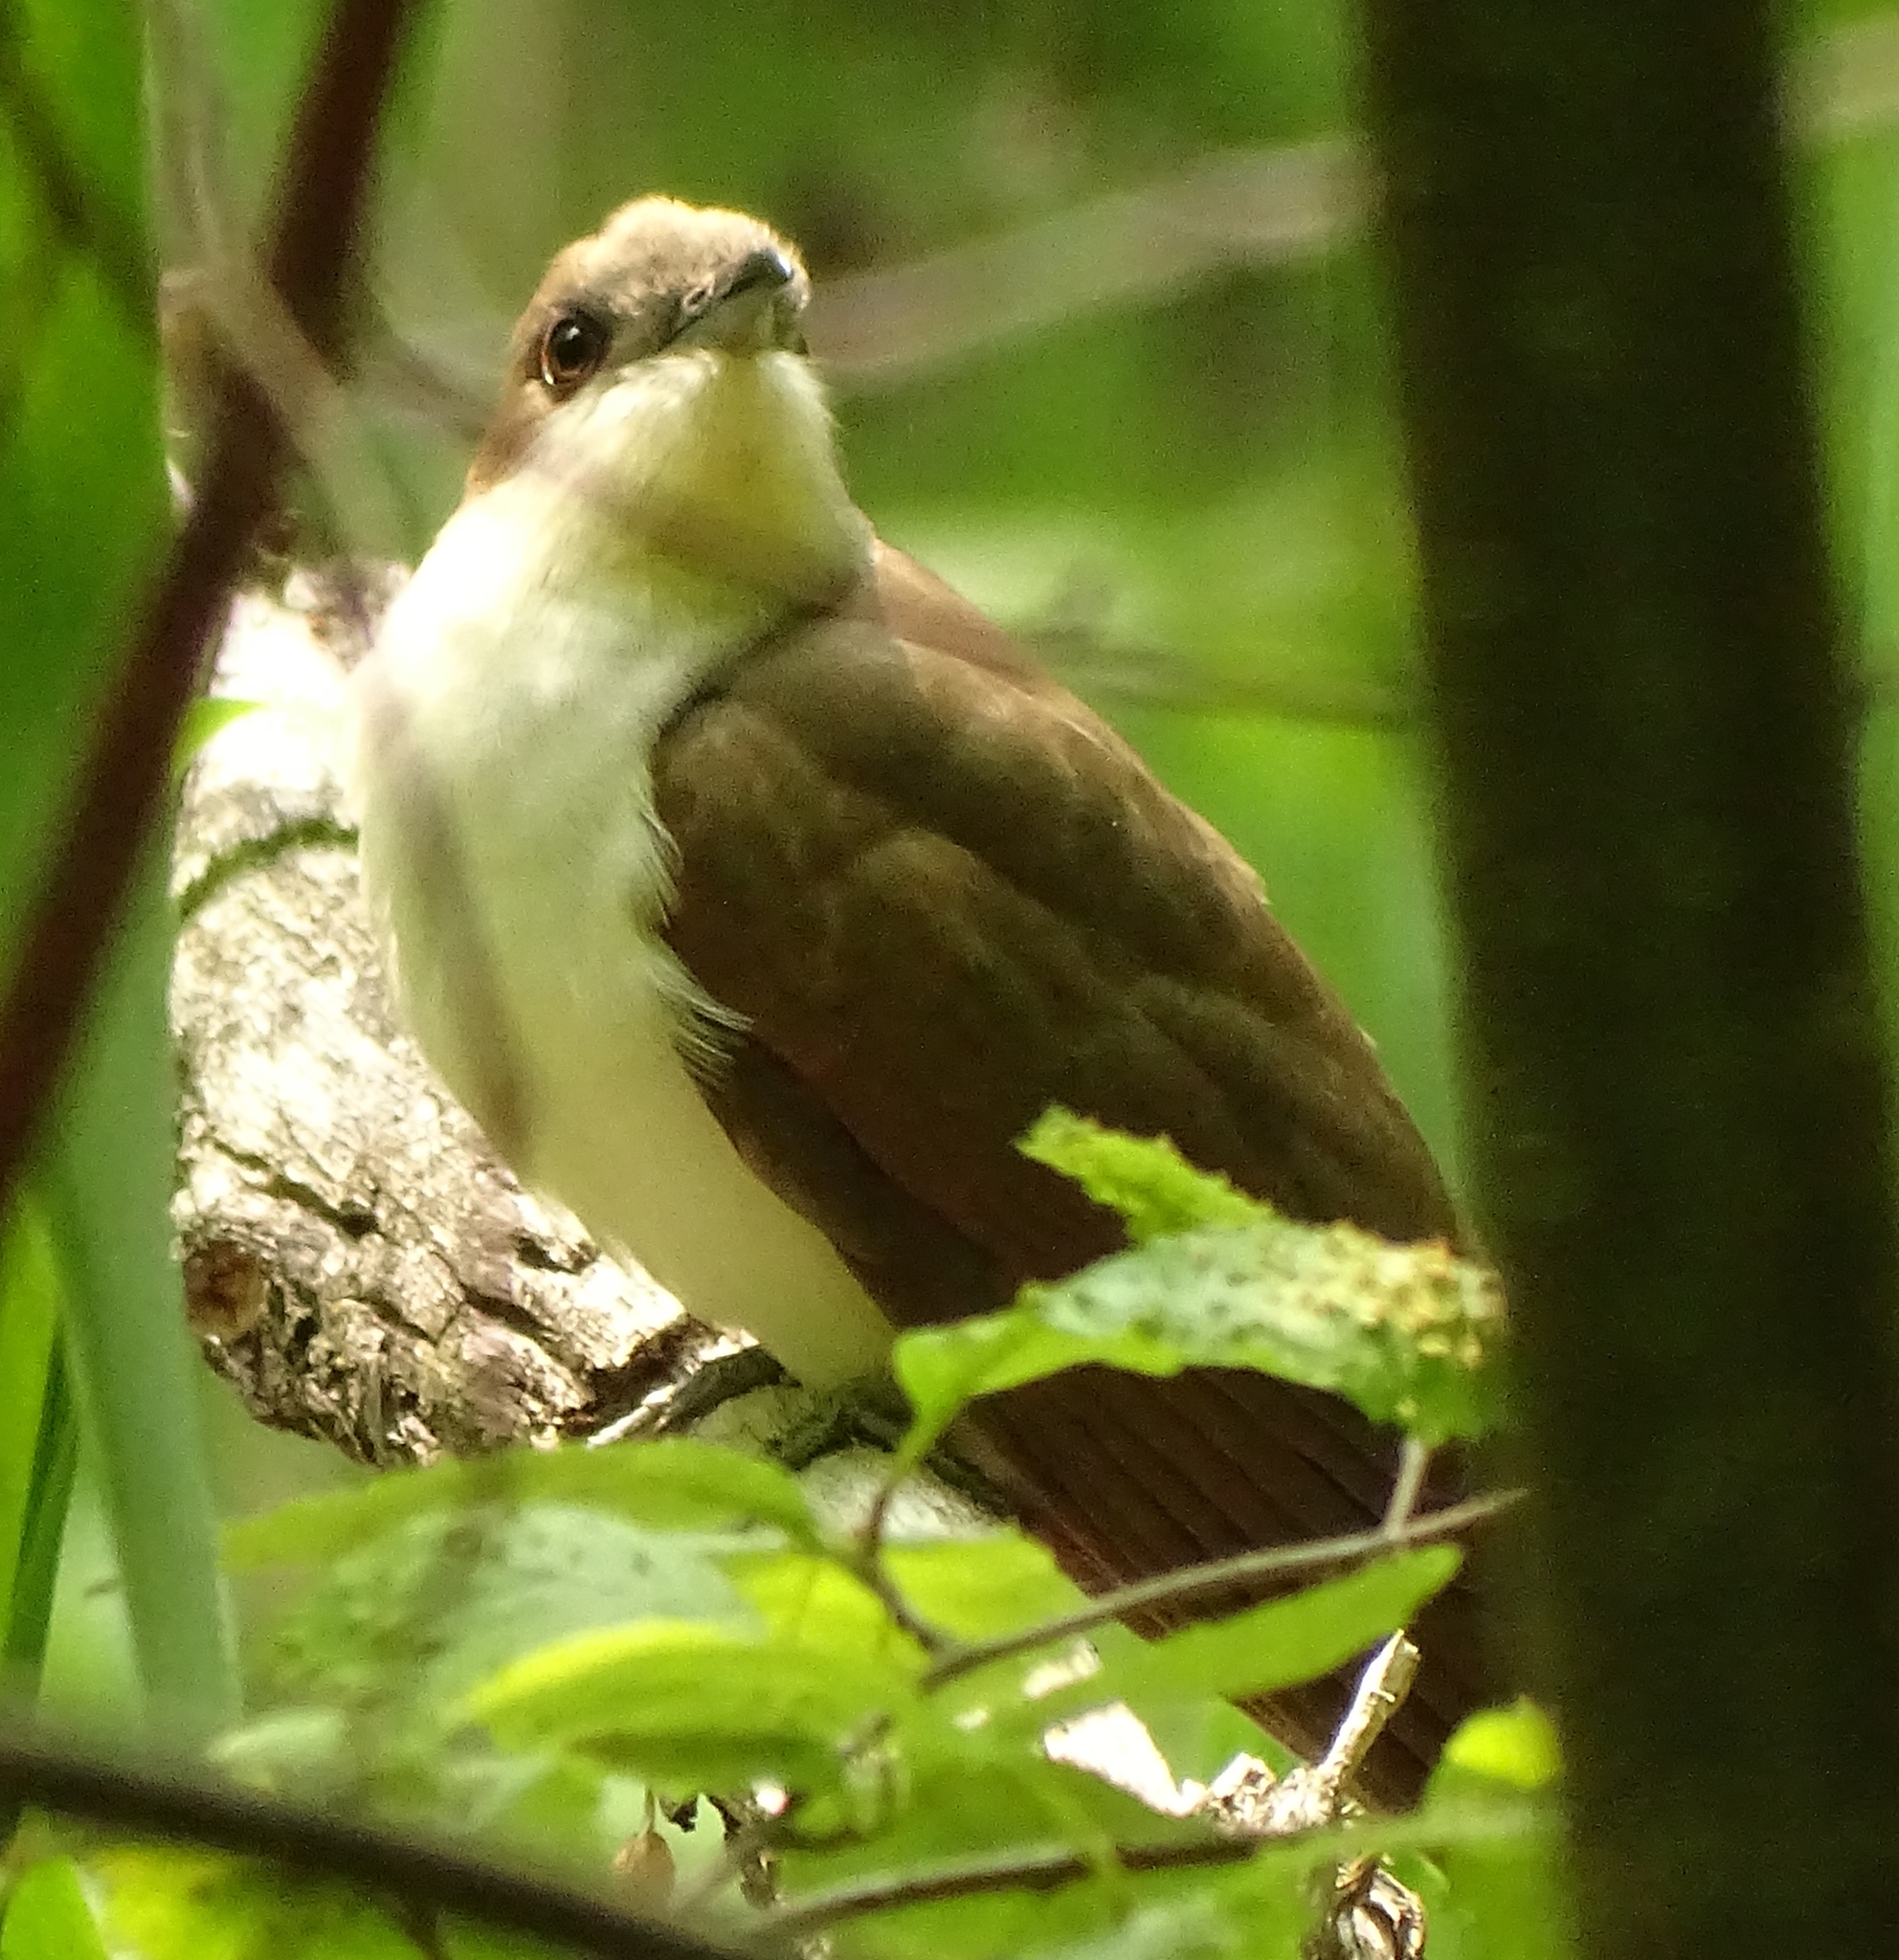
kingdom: Animalia
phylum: Chordata
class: Aves
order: Cuculiformes
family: Cuculidae
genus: Coccyzus
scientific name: Coccyzus erythropthalmus
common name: Black-billed cuckoo
